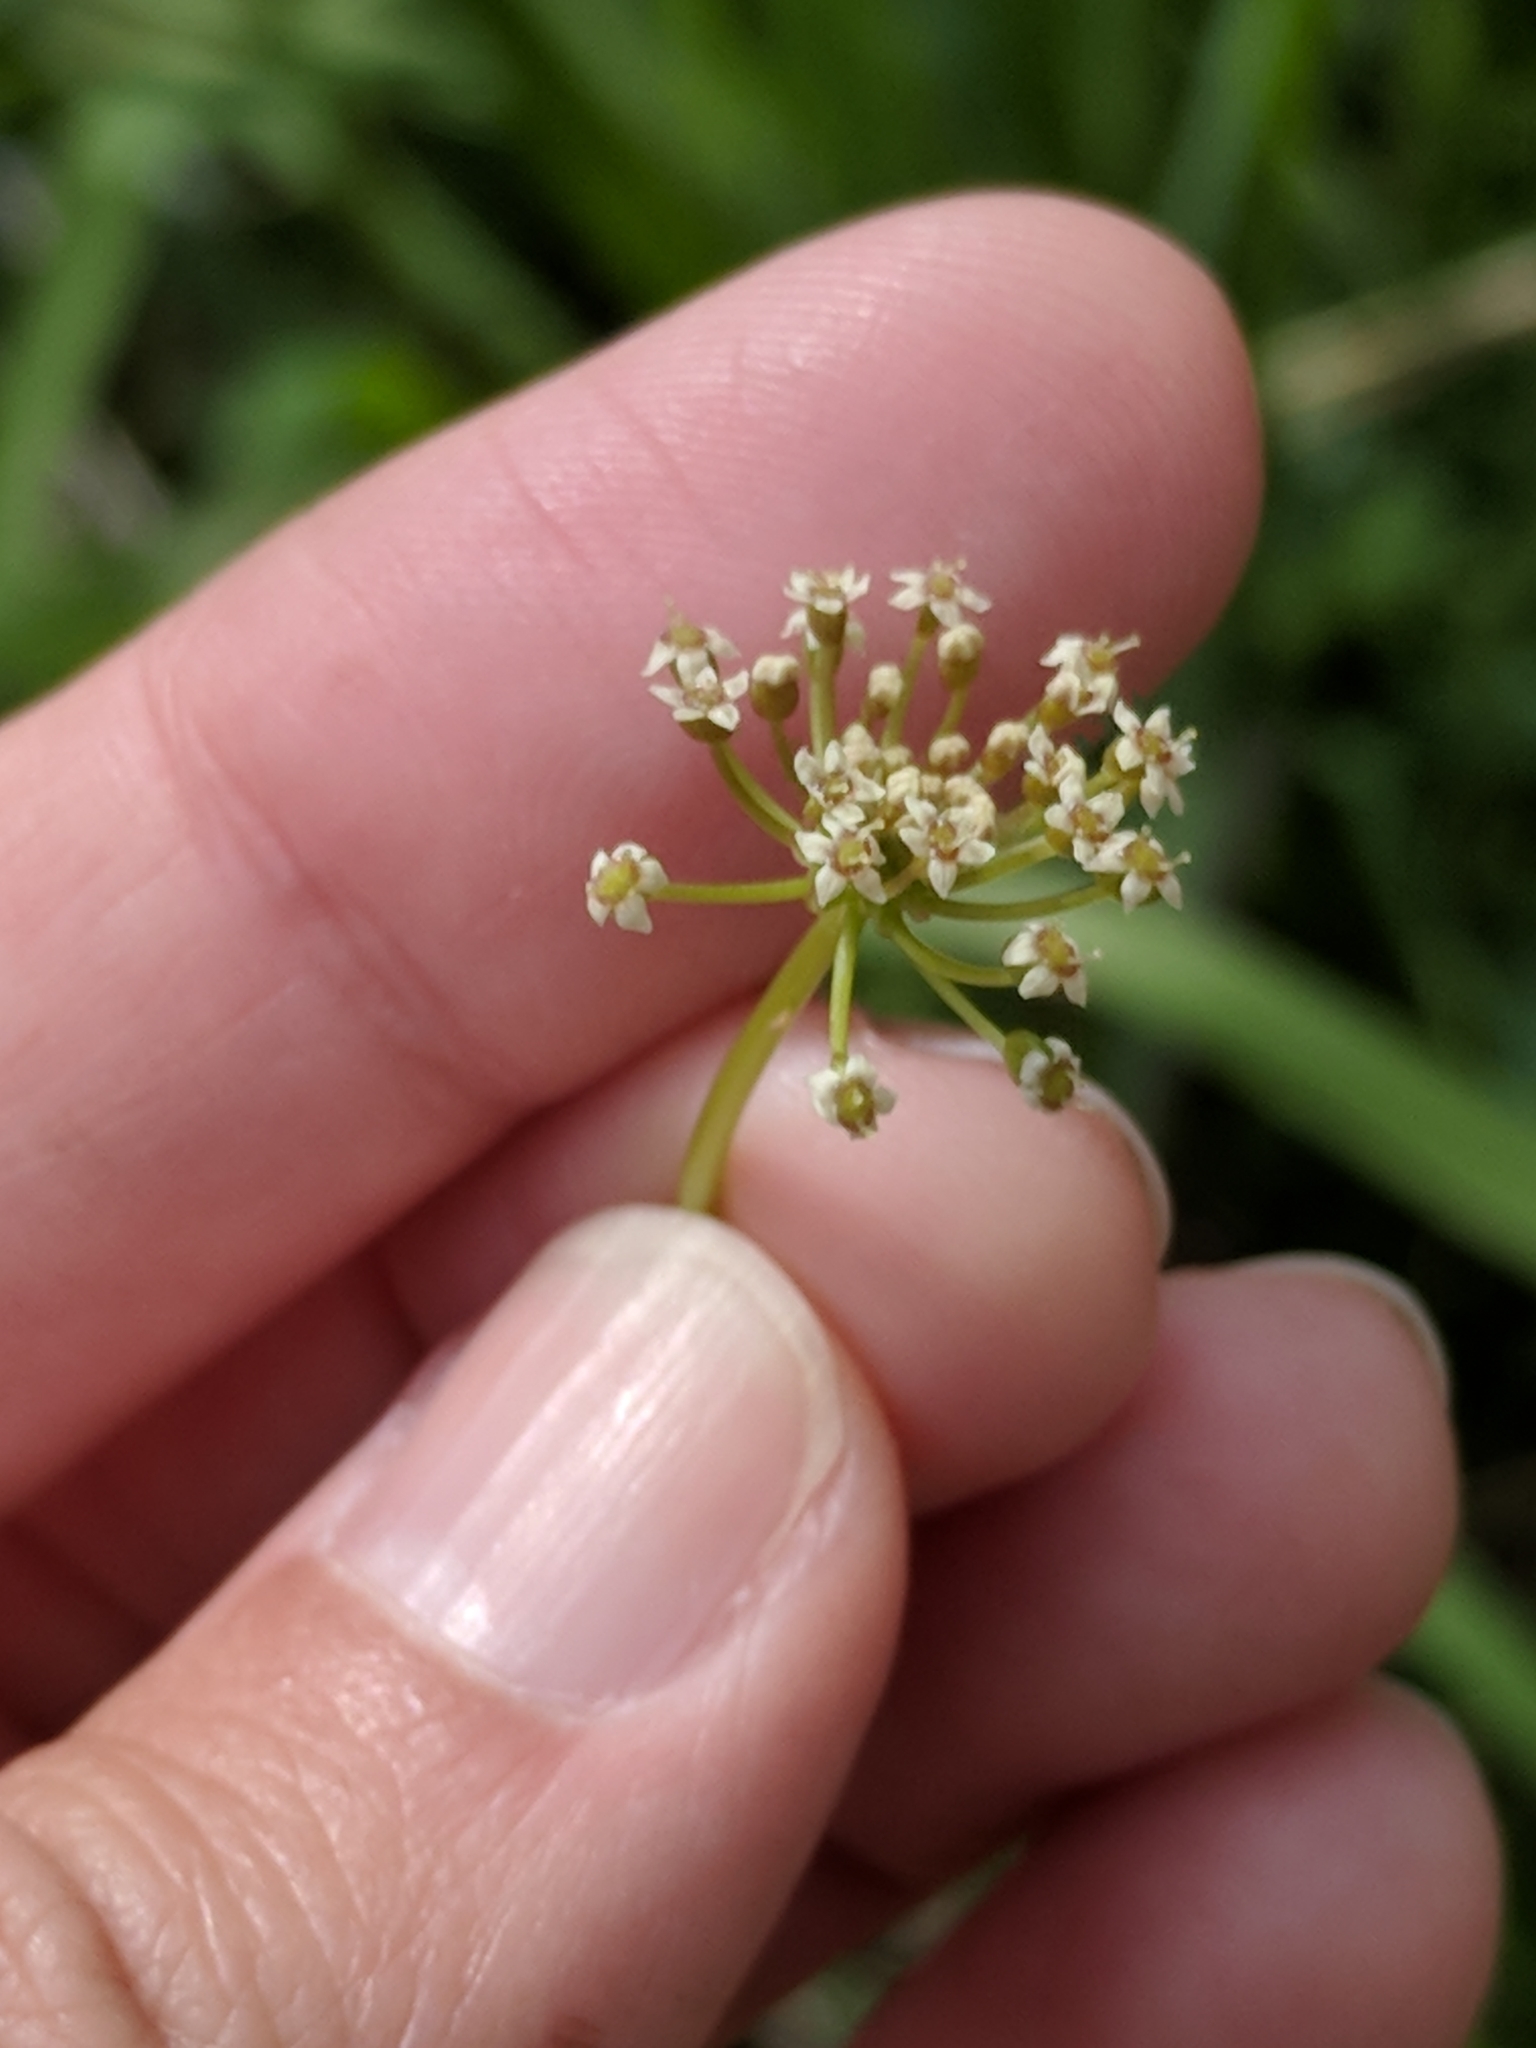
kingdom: Plantae
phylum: Tracheophyta
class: Magnoliopsida
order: Apiales
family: Araliaceae
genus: Hydrocotyle
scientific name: Hydrocotyle umbellata
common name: Water pennywort
